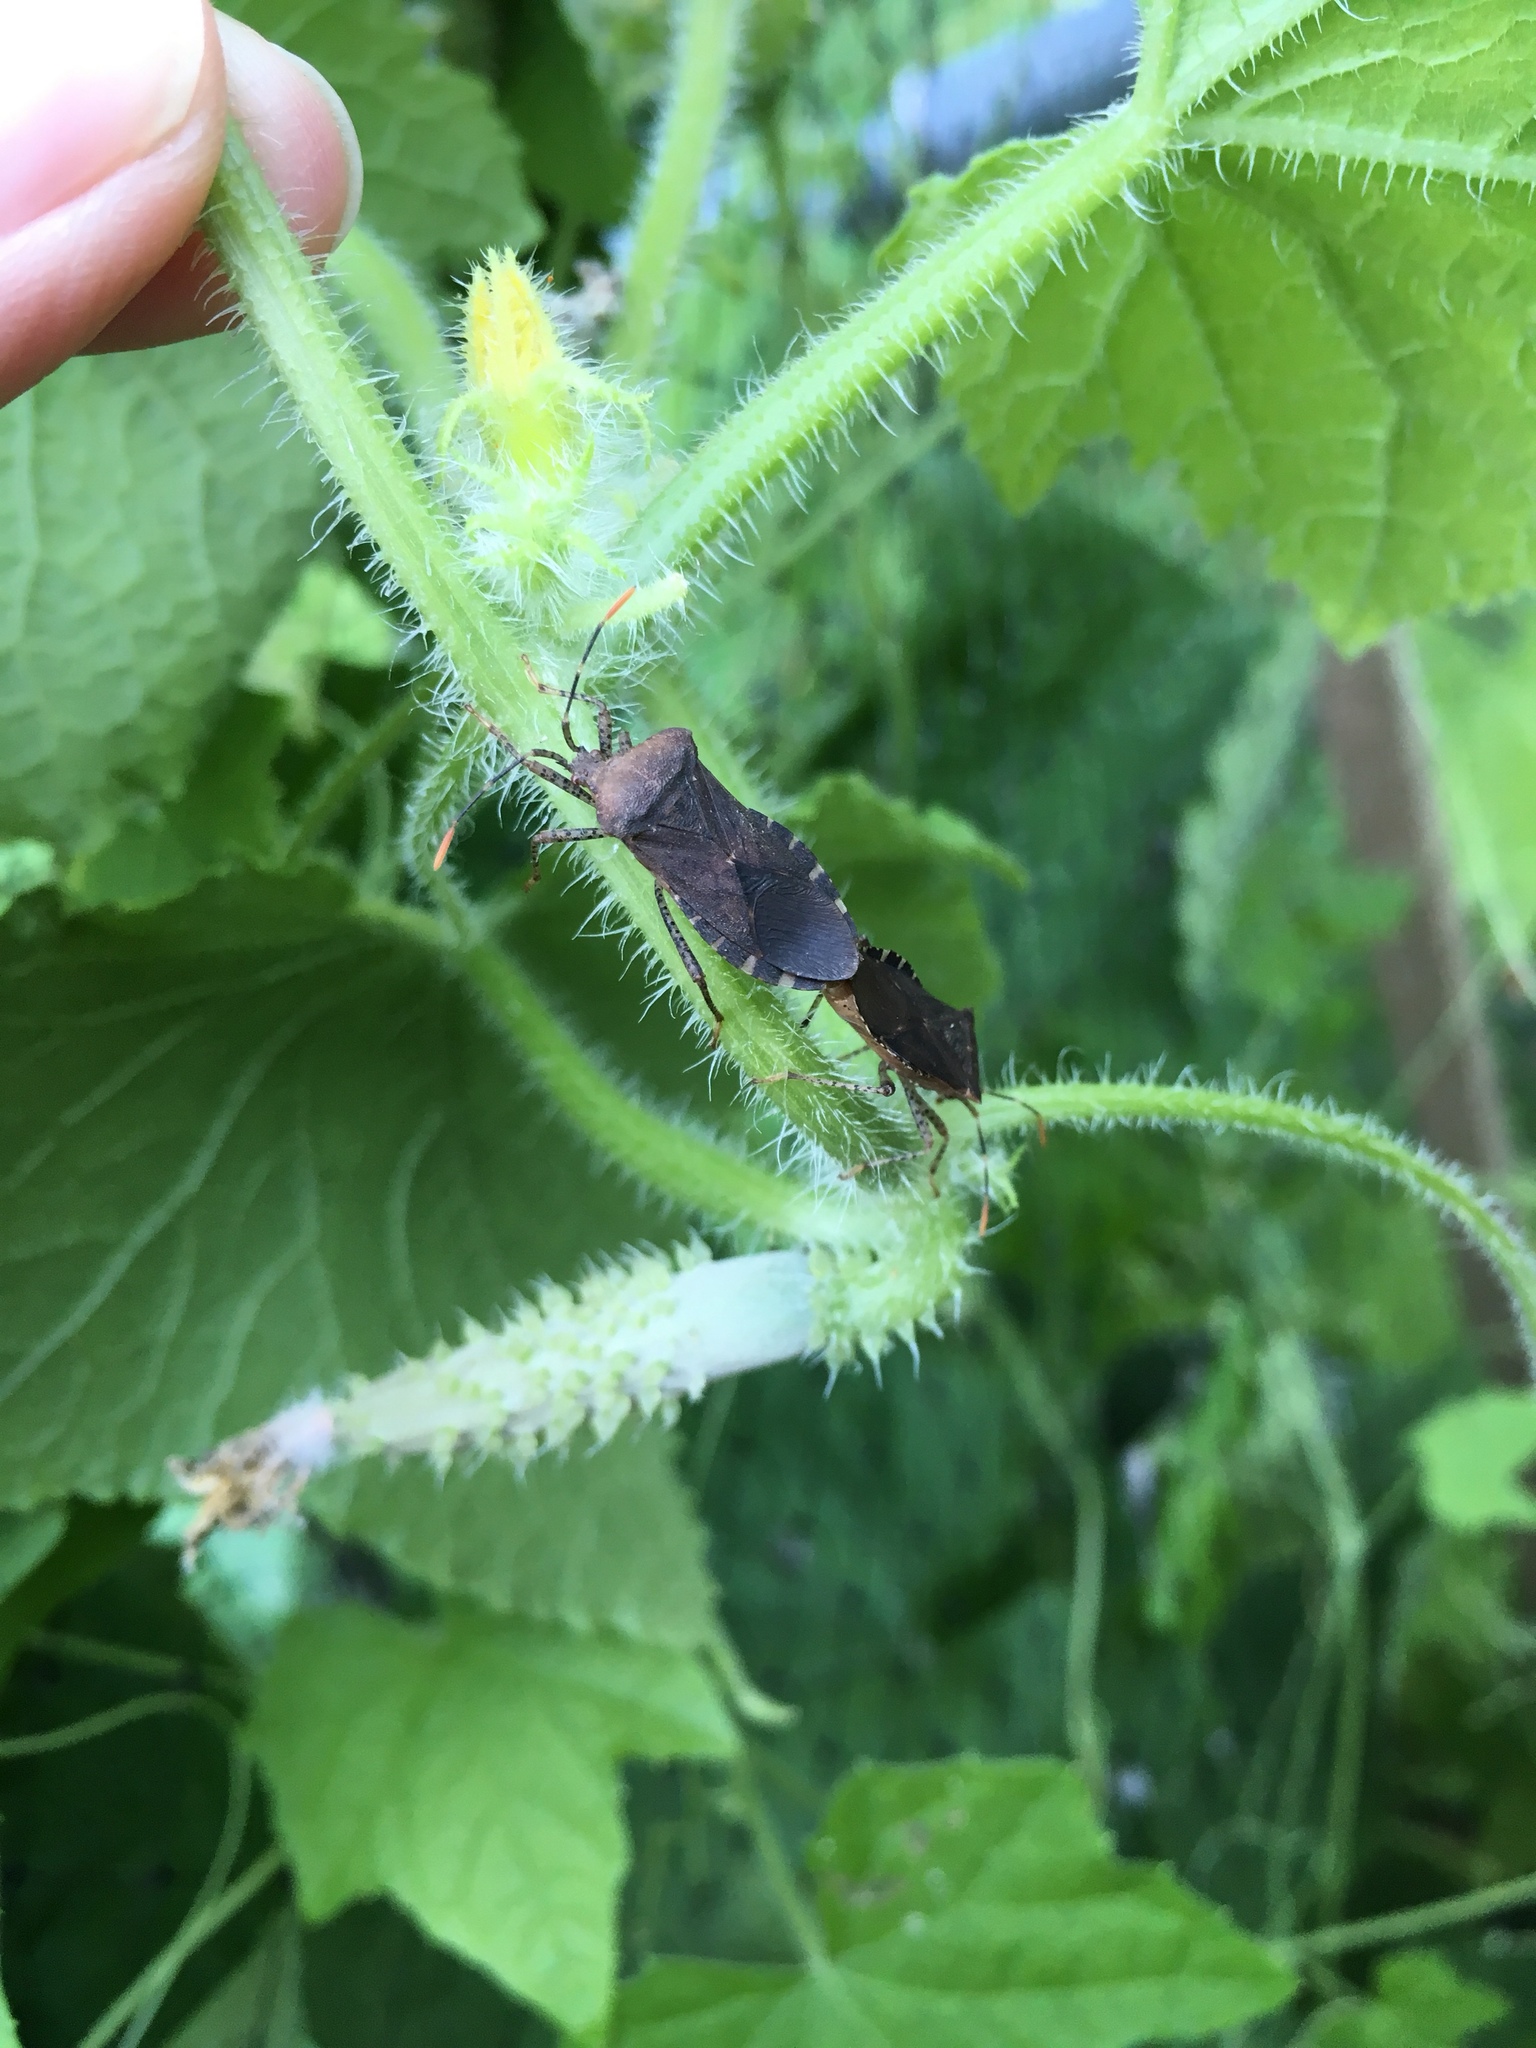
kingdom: Animalia
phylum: Arthropoda
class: Insecta
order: Hemiptera
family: Coreidae
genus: Anasa
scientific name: Anasa armigera
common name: Horned squash bug
